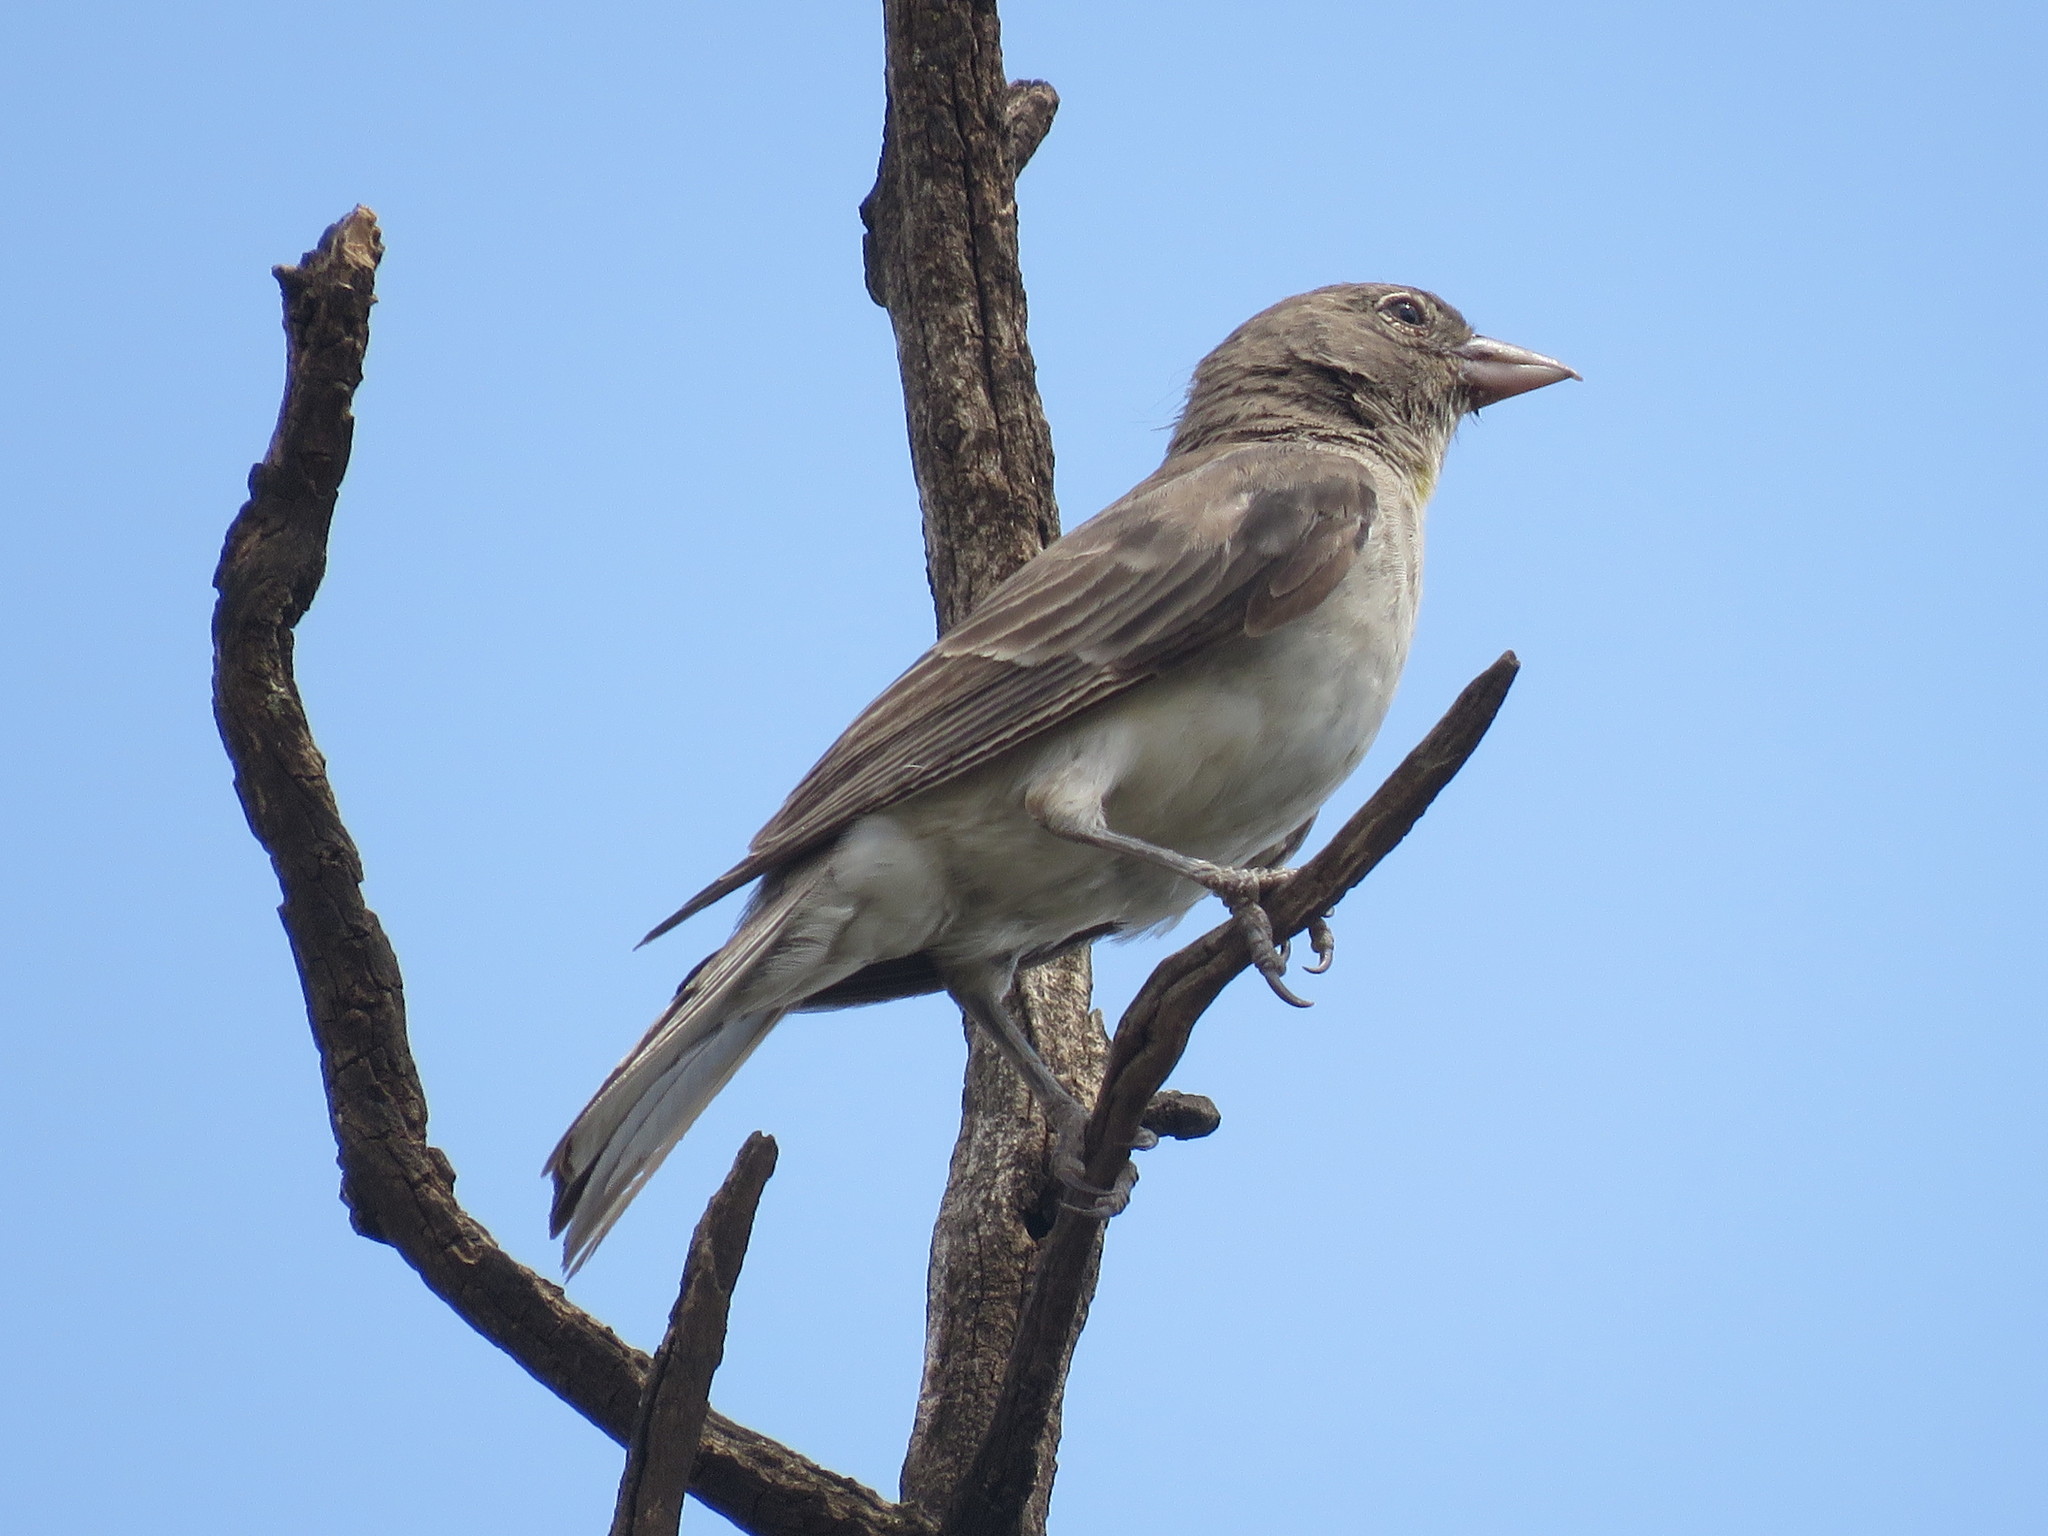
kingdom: Animalia
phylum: Chordata
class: Aves
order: Passeriformes
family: Passeridae
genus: Gymnoris
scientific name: Gymnoris pyrgita
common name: Yellow-spotted petronia
